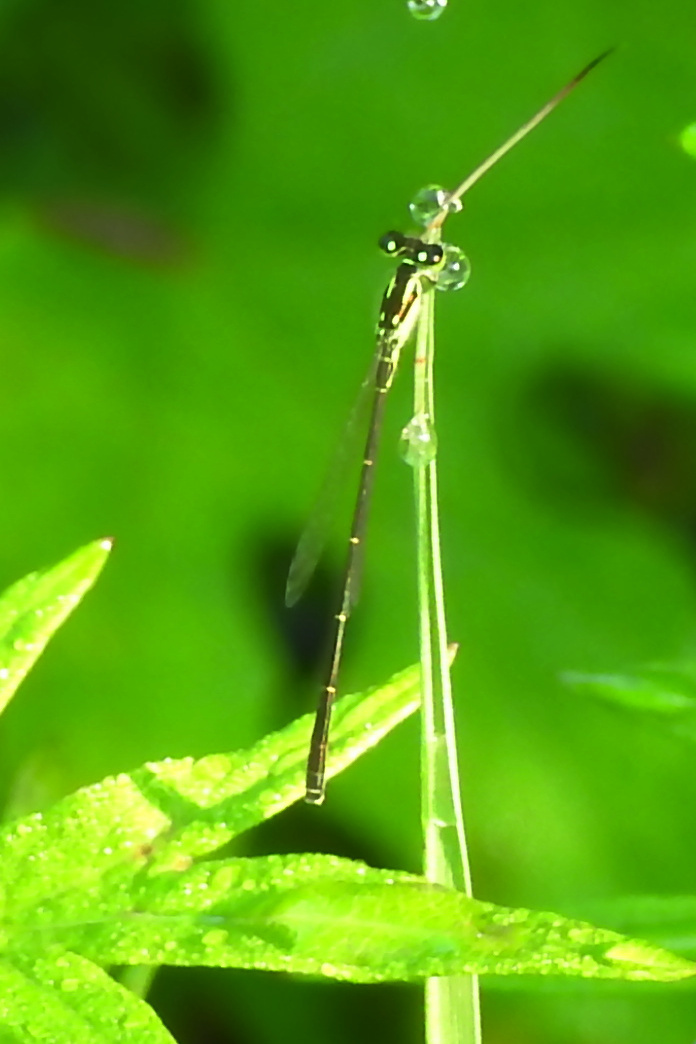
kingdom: Animalia
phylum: Arthropoda
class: Insecta
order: Odonata
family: Coenagrionidae
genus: Ischnura
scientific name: Ischnura posita
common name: Fragile forktail
